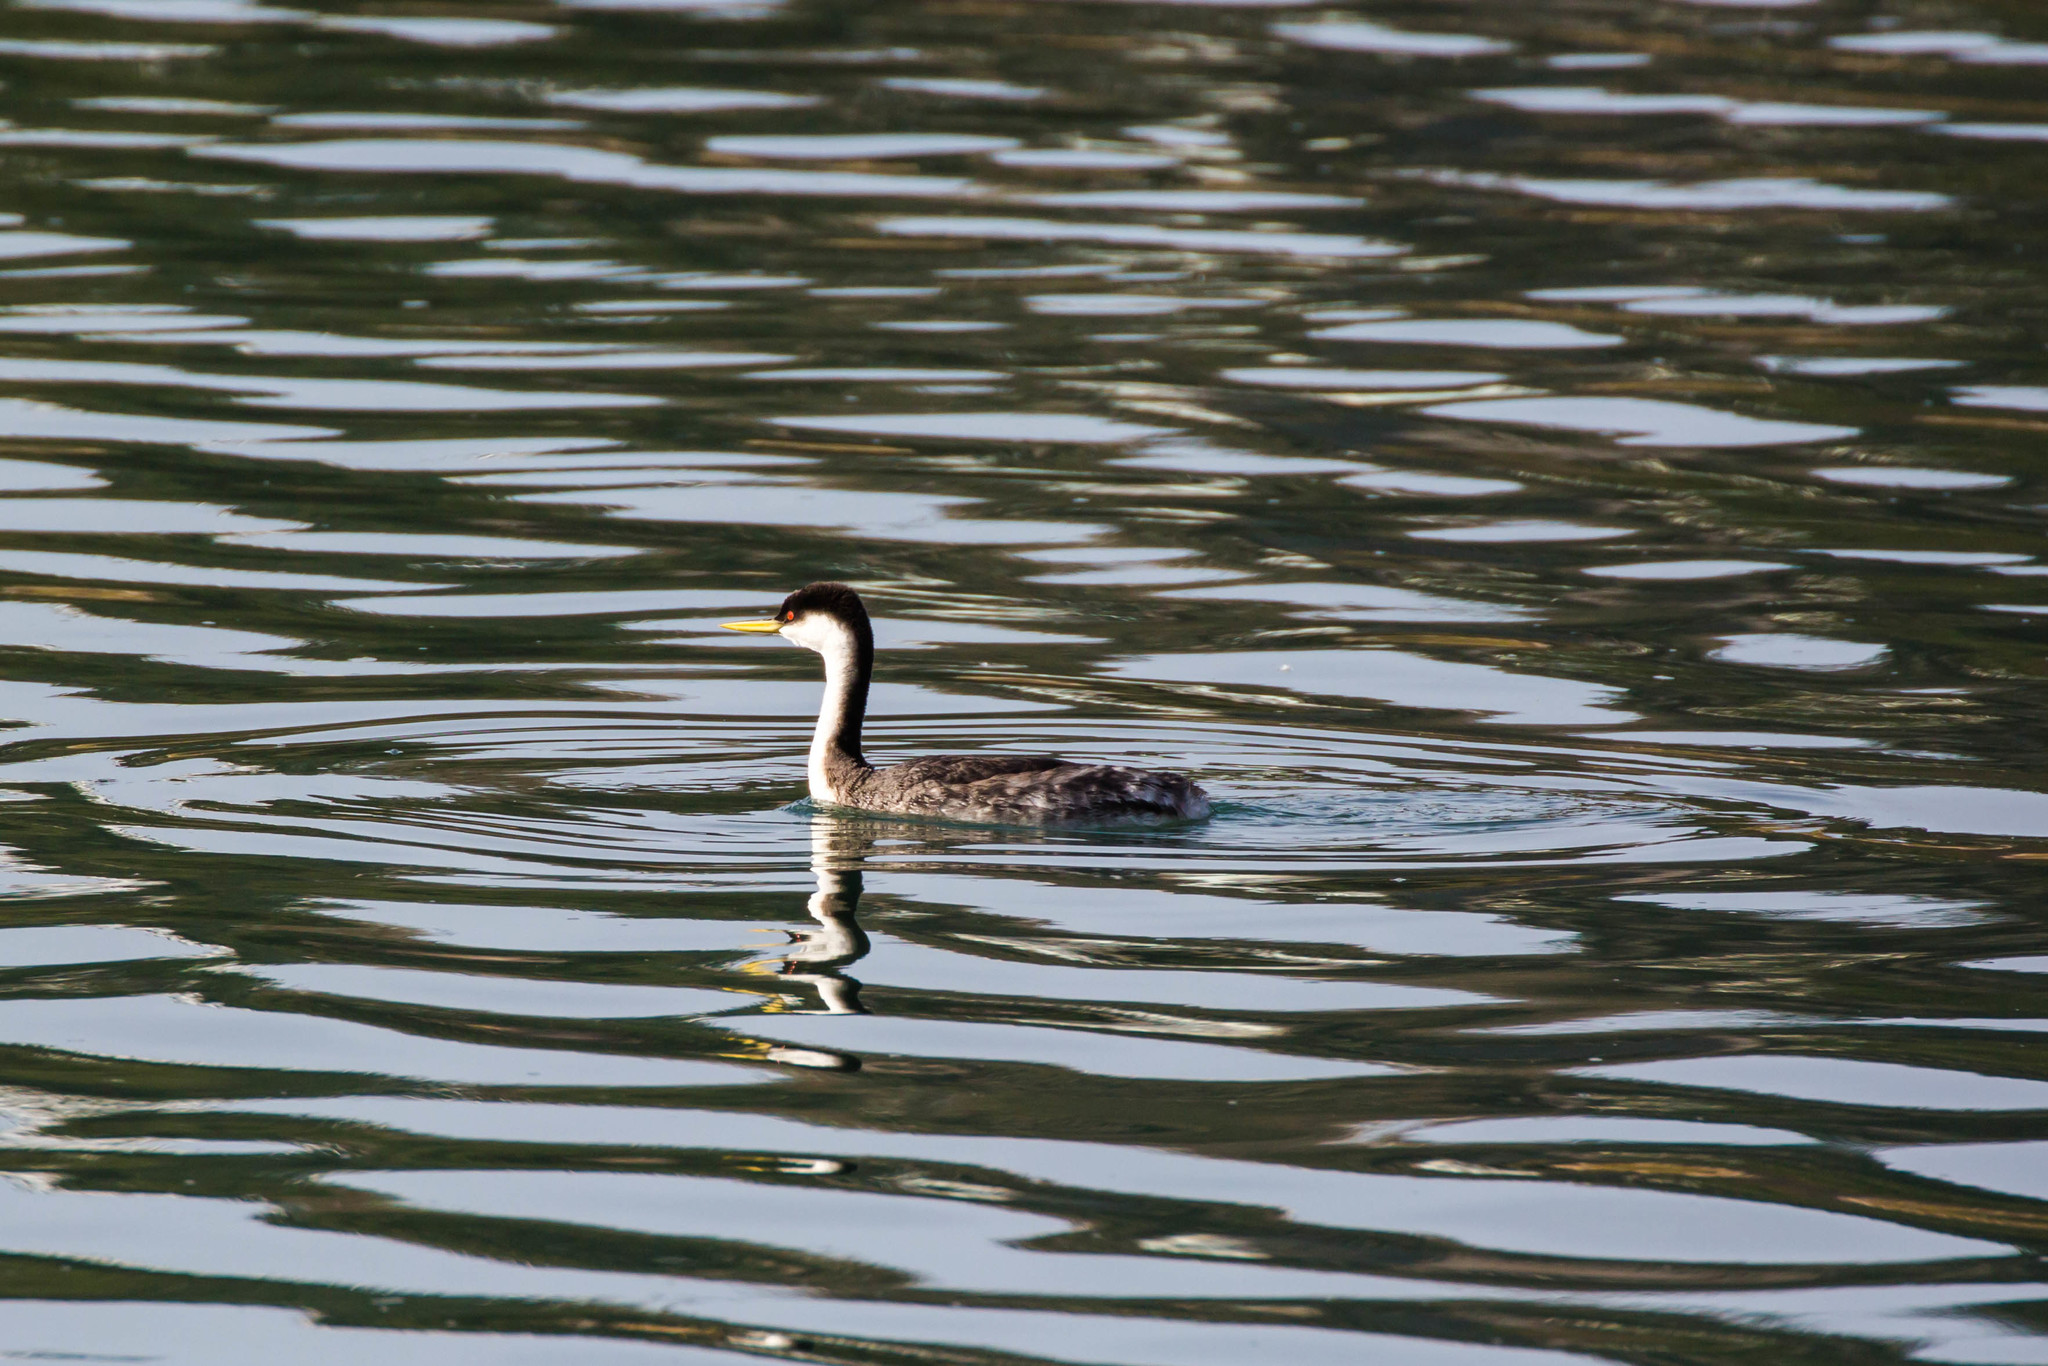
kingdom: Animalia
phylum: Chordata
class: Aves
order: Podicipediformes
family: Podicipedidae
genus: Aechmophorus
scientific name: Aechmophorus occidentalis
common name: Western grebe
